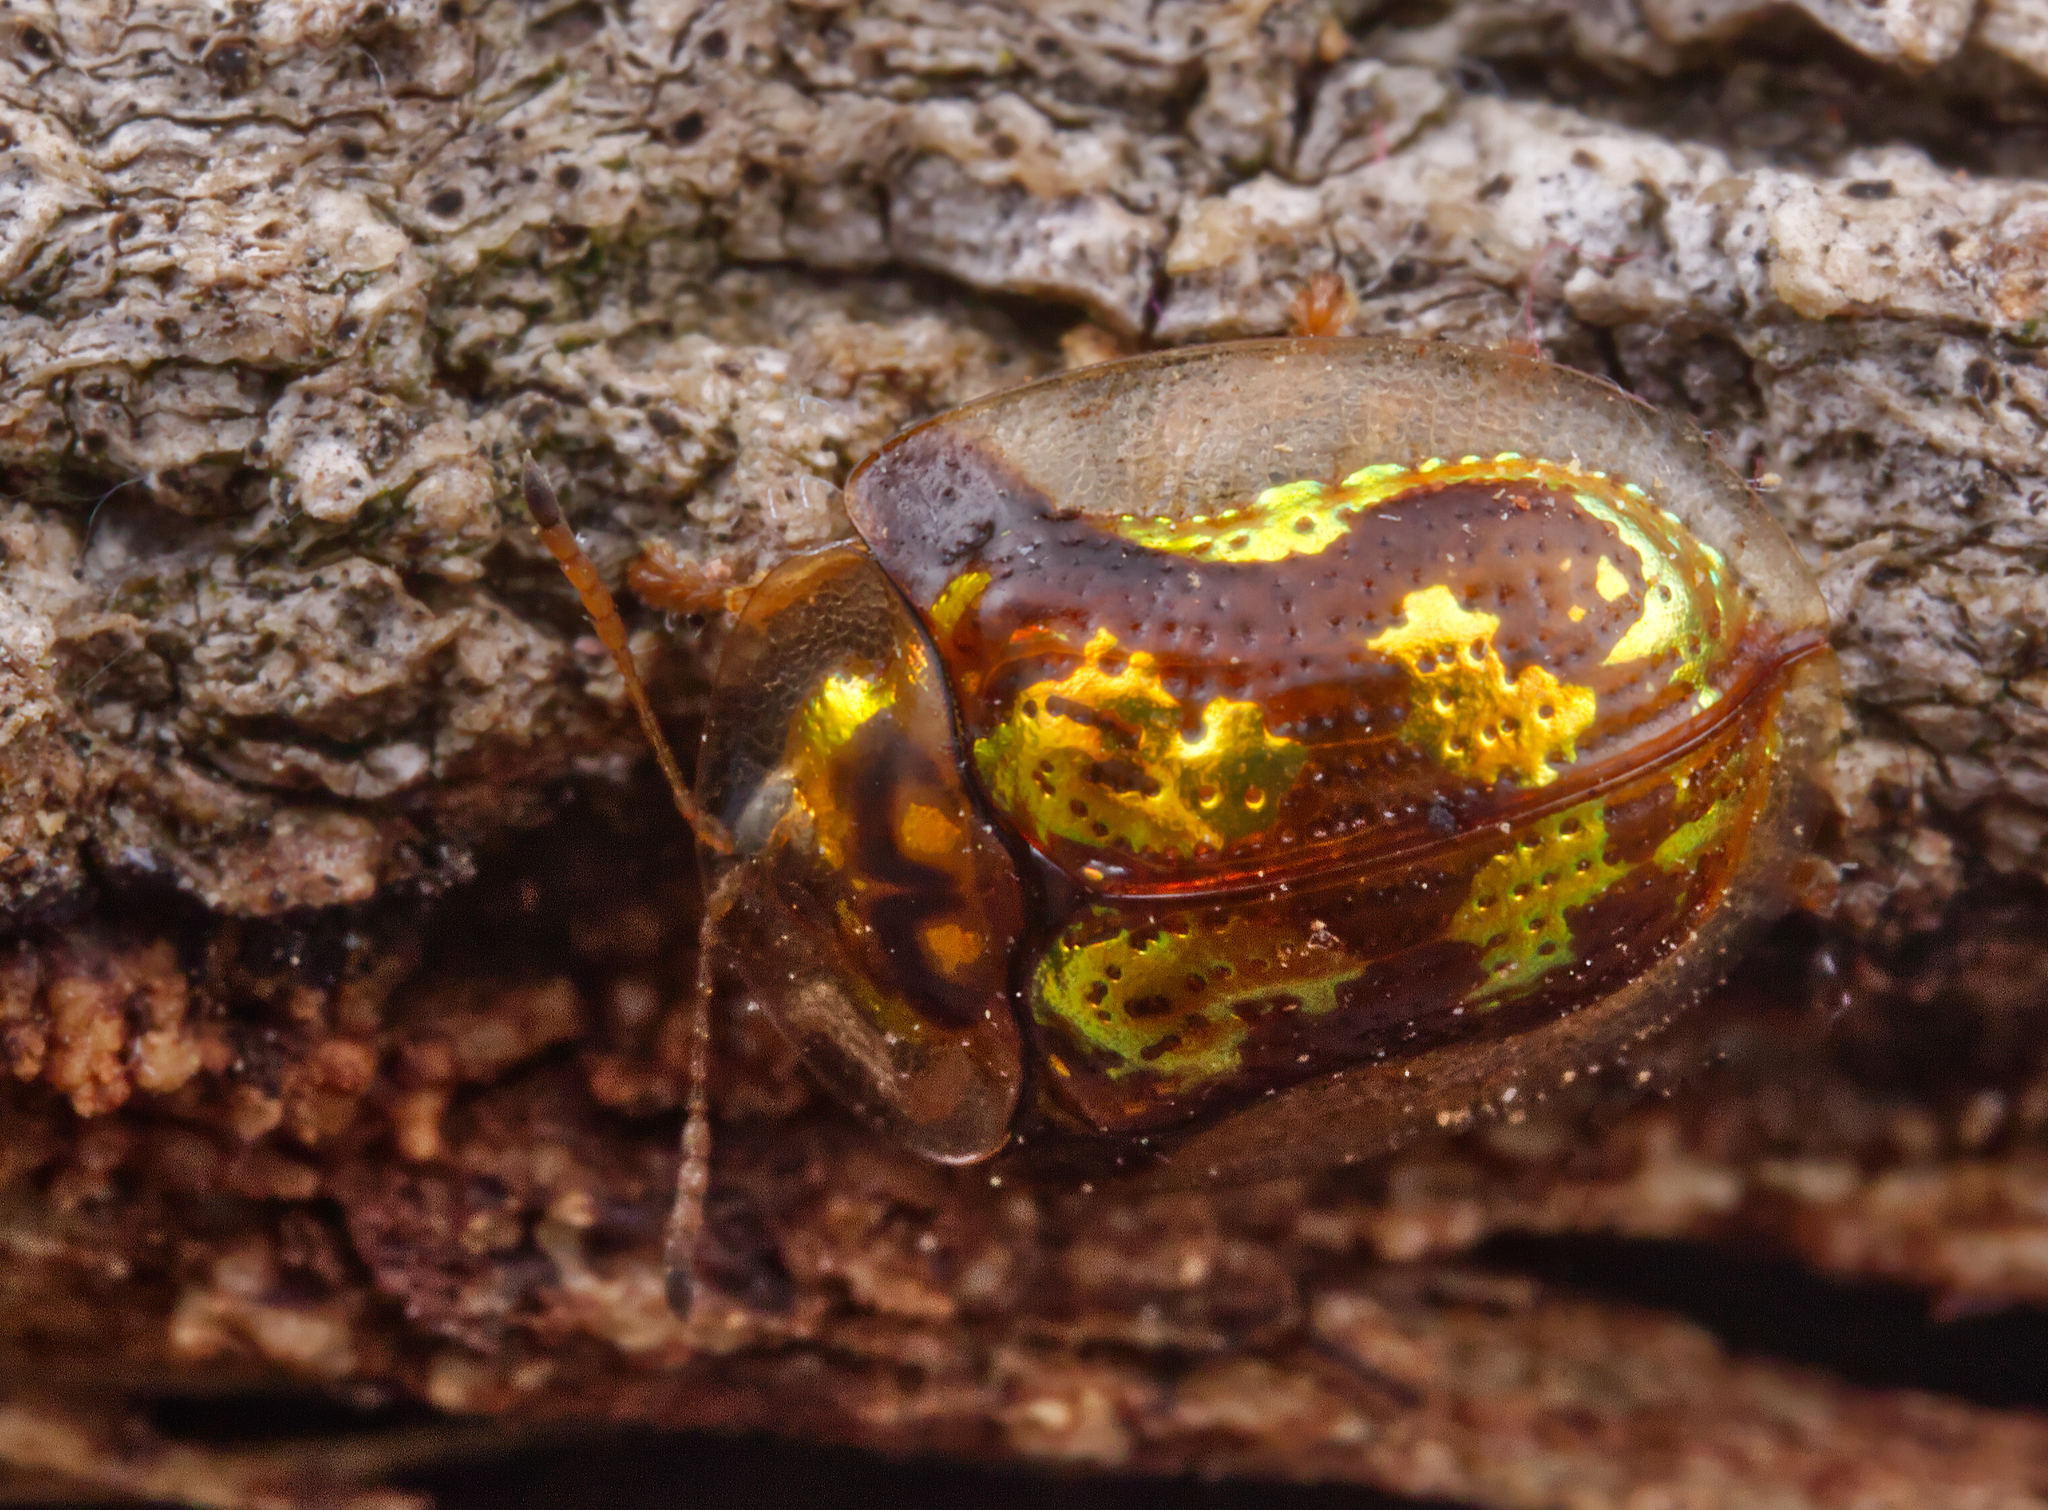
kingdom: Animalia
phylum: Arthropoda
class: Insecta
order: Coleoptera
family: Chrysomelidae
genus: Deloyala
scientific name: Deloyala guttata
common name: Mottled tortoise beetle
